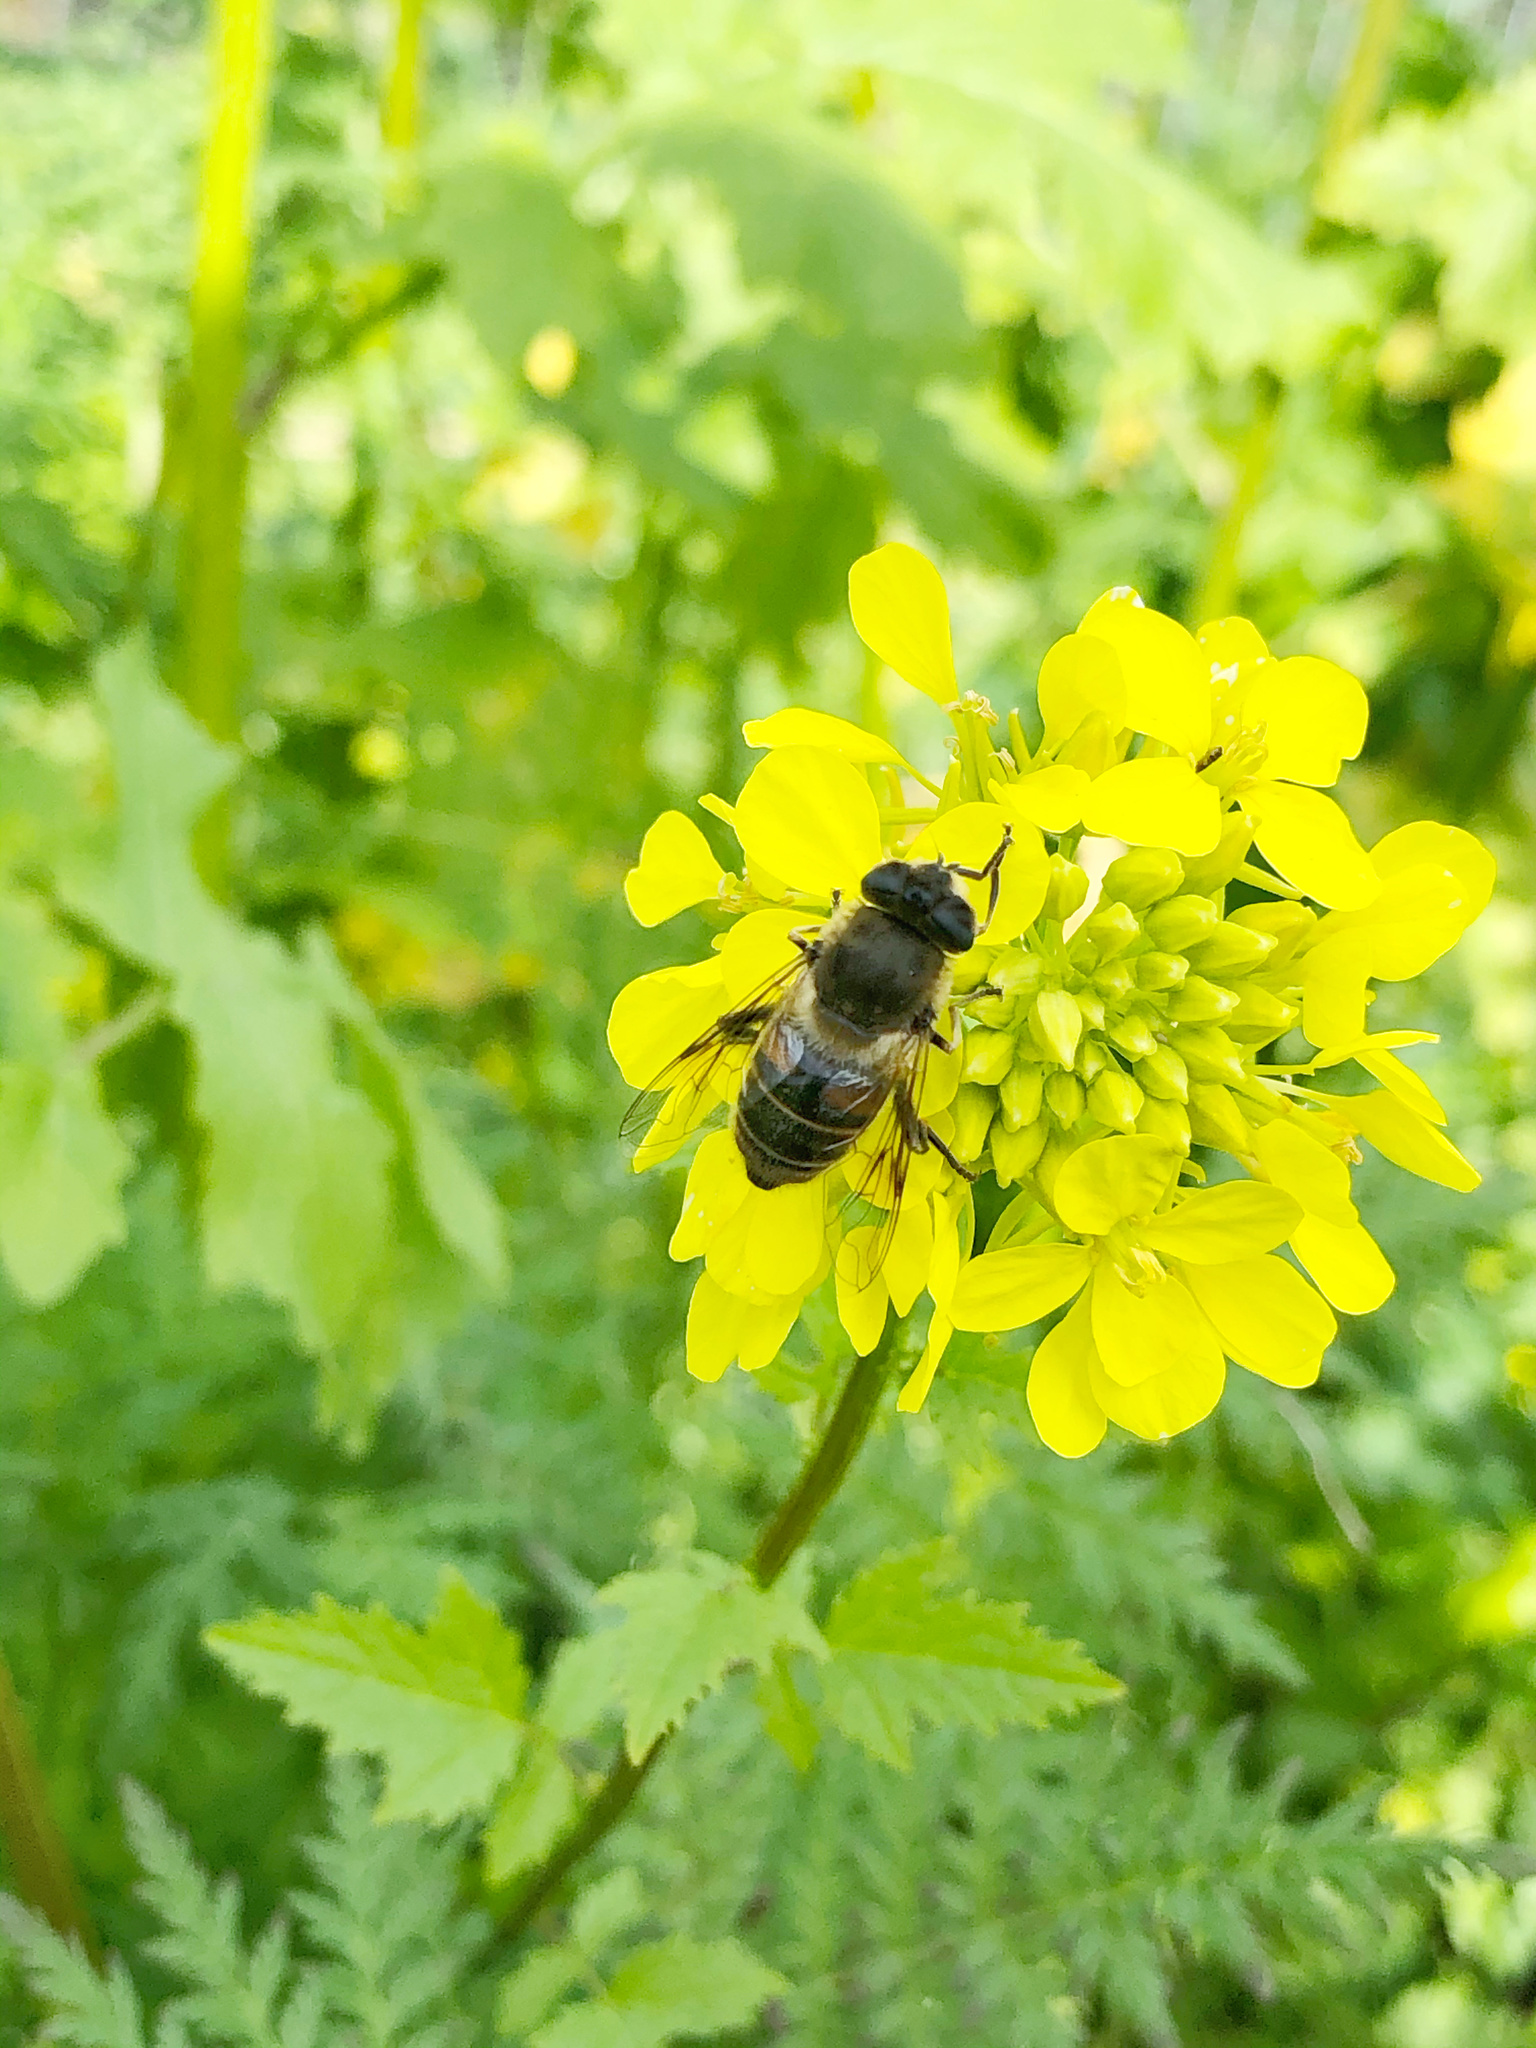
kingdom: Animalia
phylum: Arthropoda
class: Insecta
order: Diptera
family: Syrphidae
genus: Eristalis
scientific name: Eristalis tenax
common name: Drone fly
